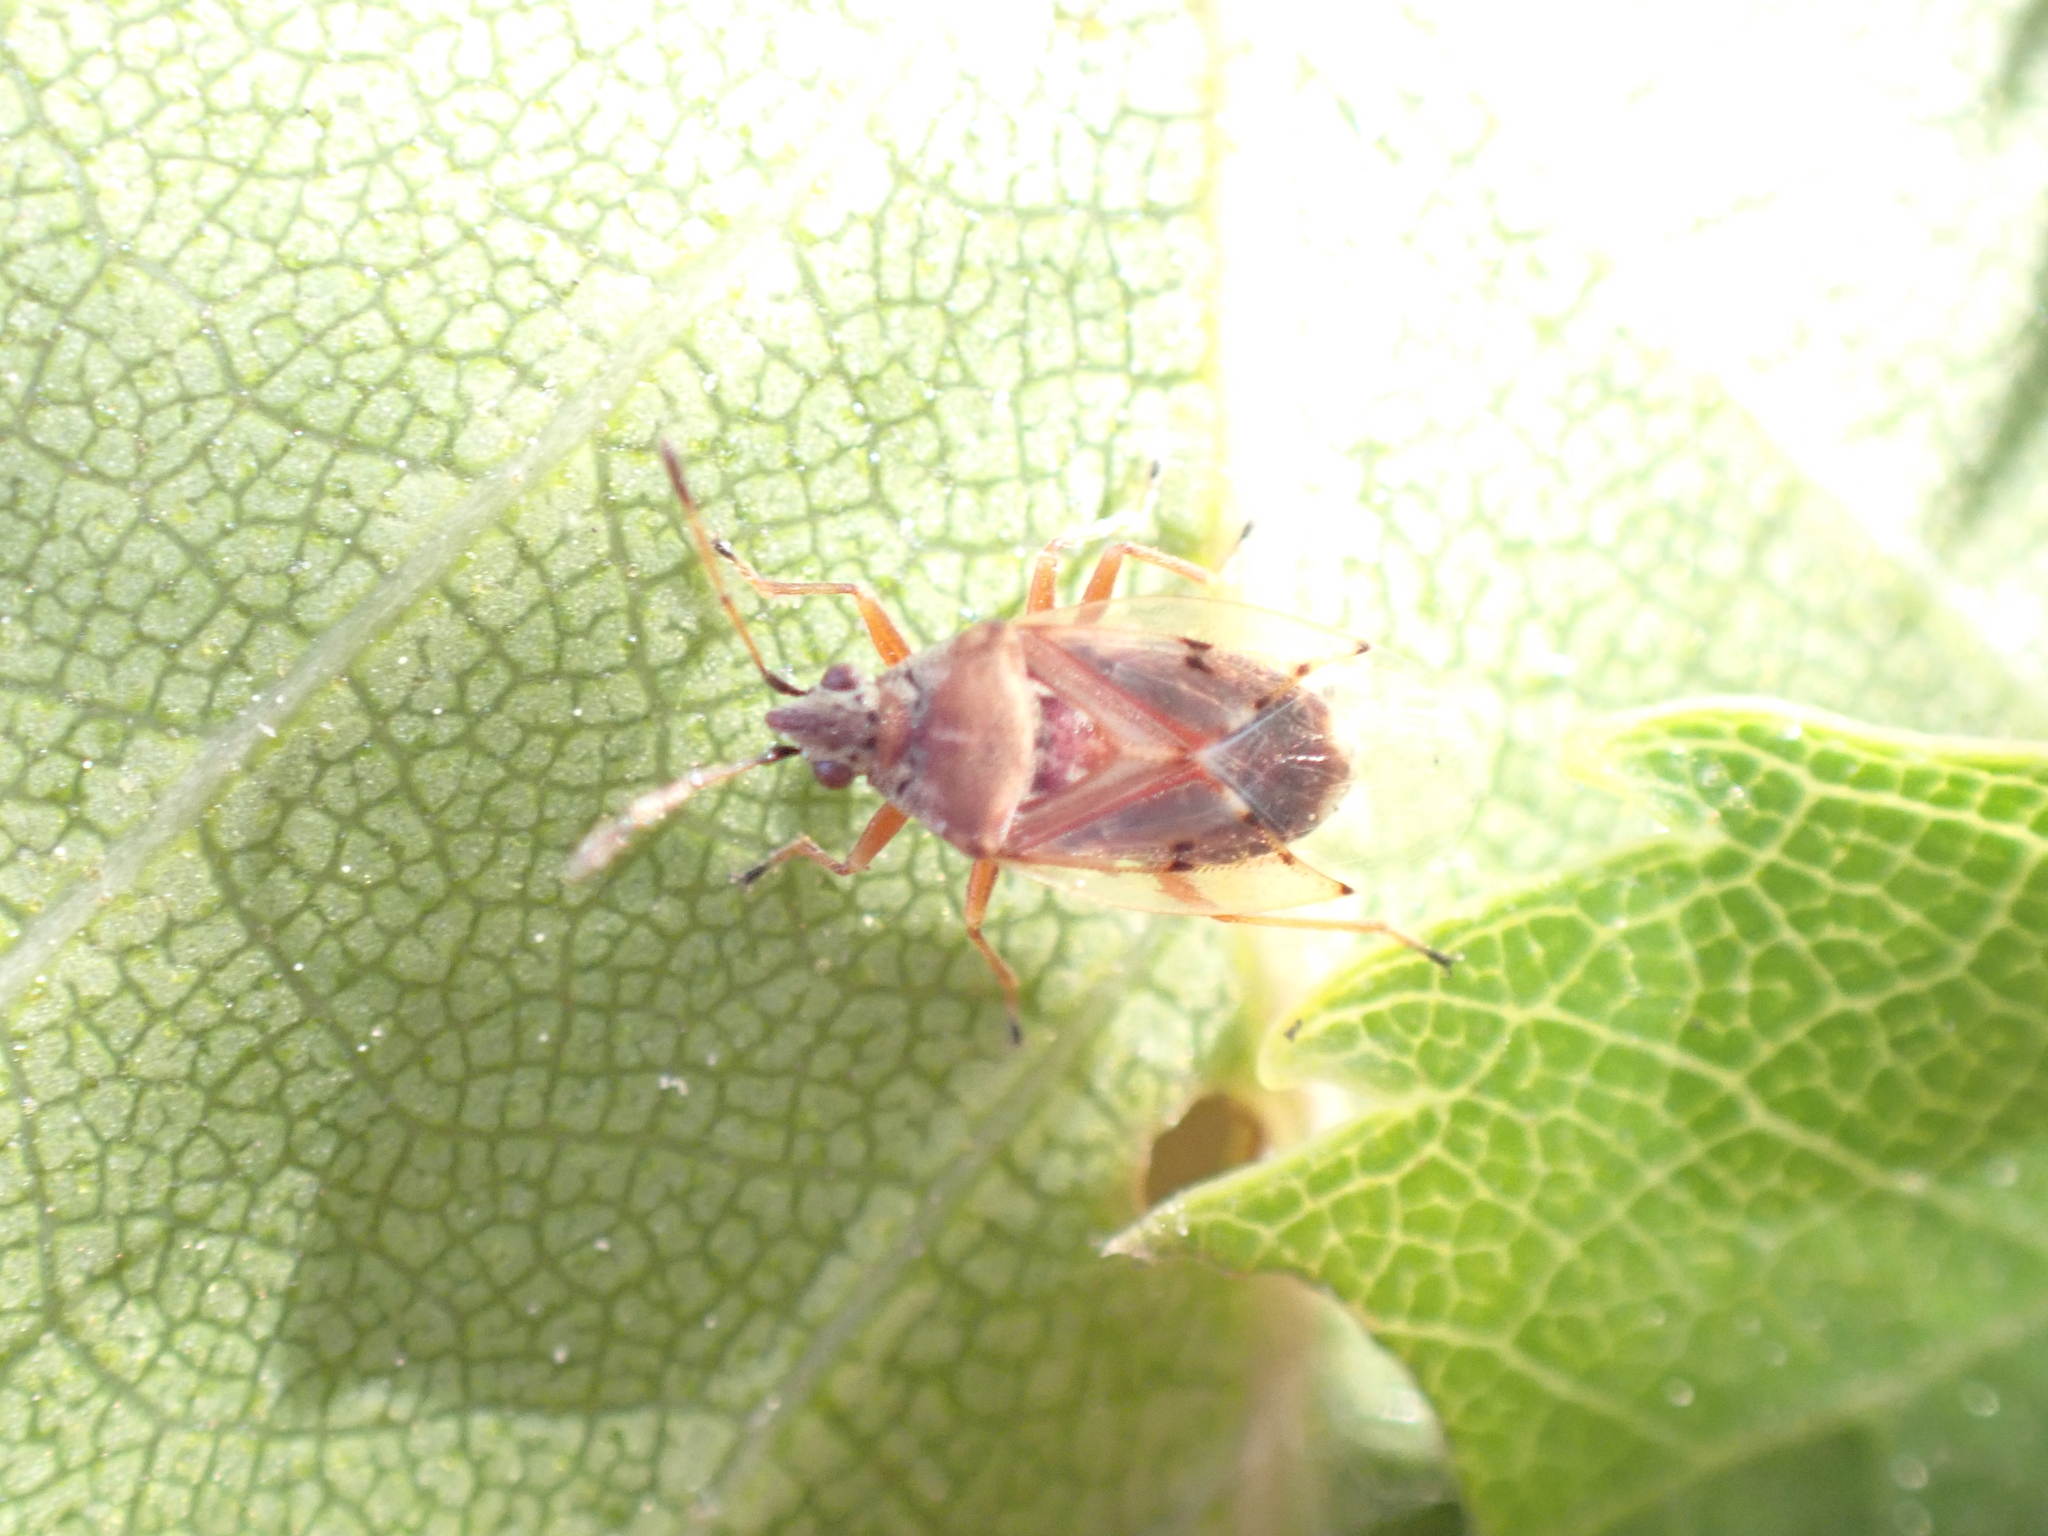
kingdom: Animalia
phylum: Arthropoda
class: Insecta
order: Hemiptera
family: Lygaeidae
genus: Kleidocerys
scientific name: Kleidocerys resedae
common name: Birch catkin bug
